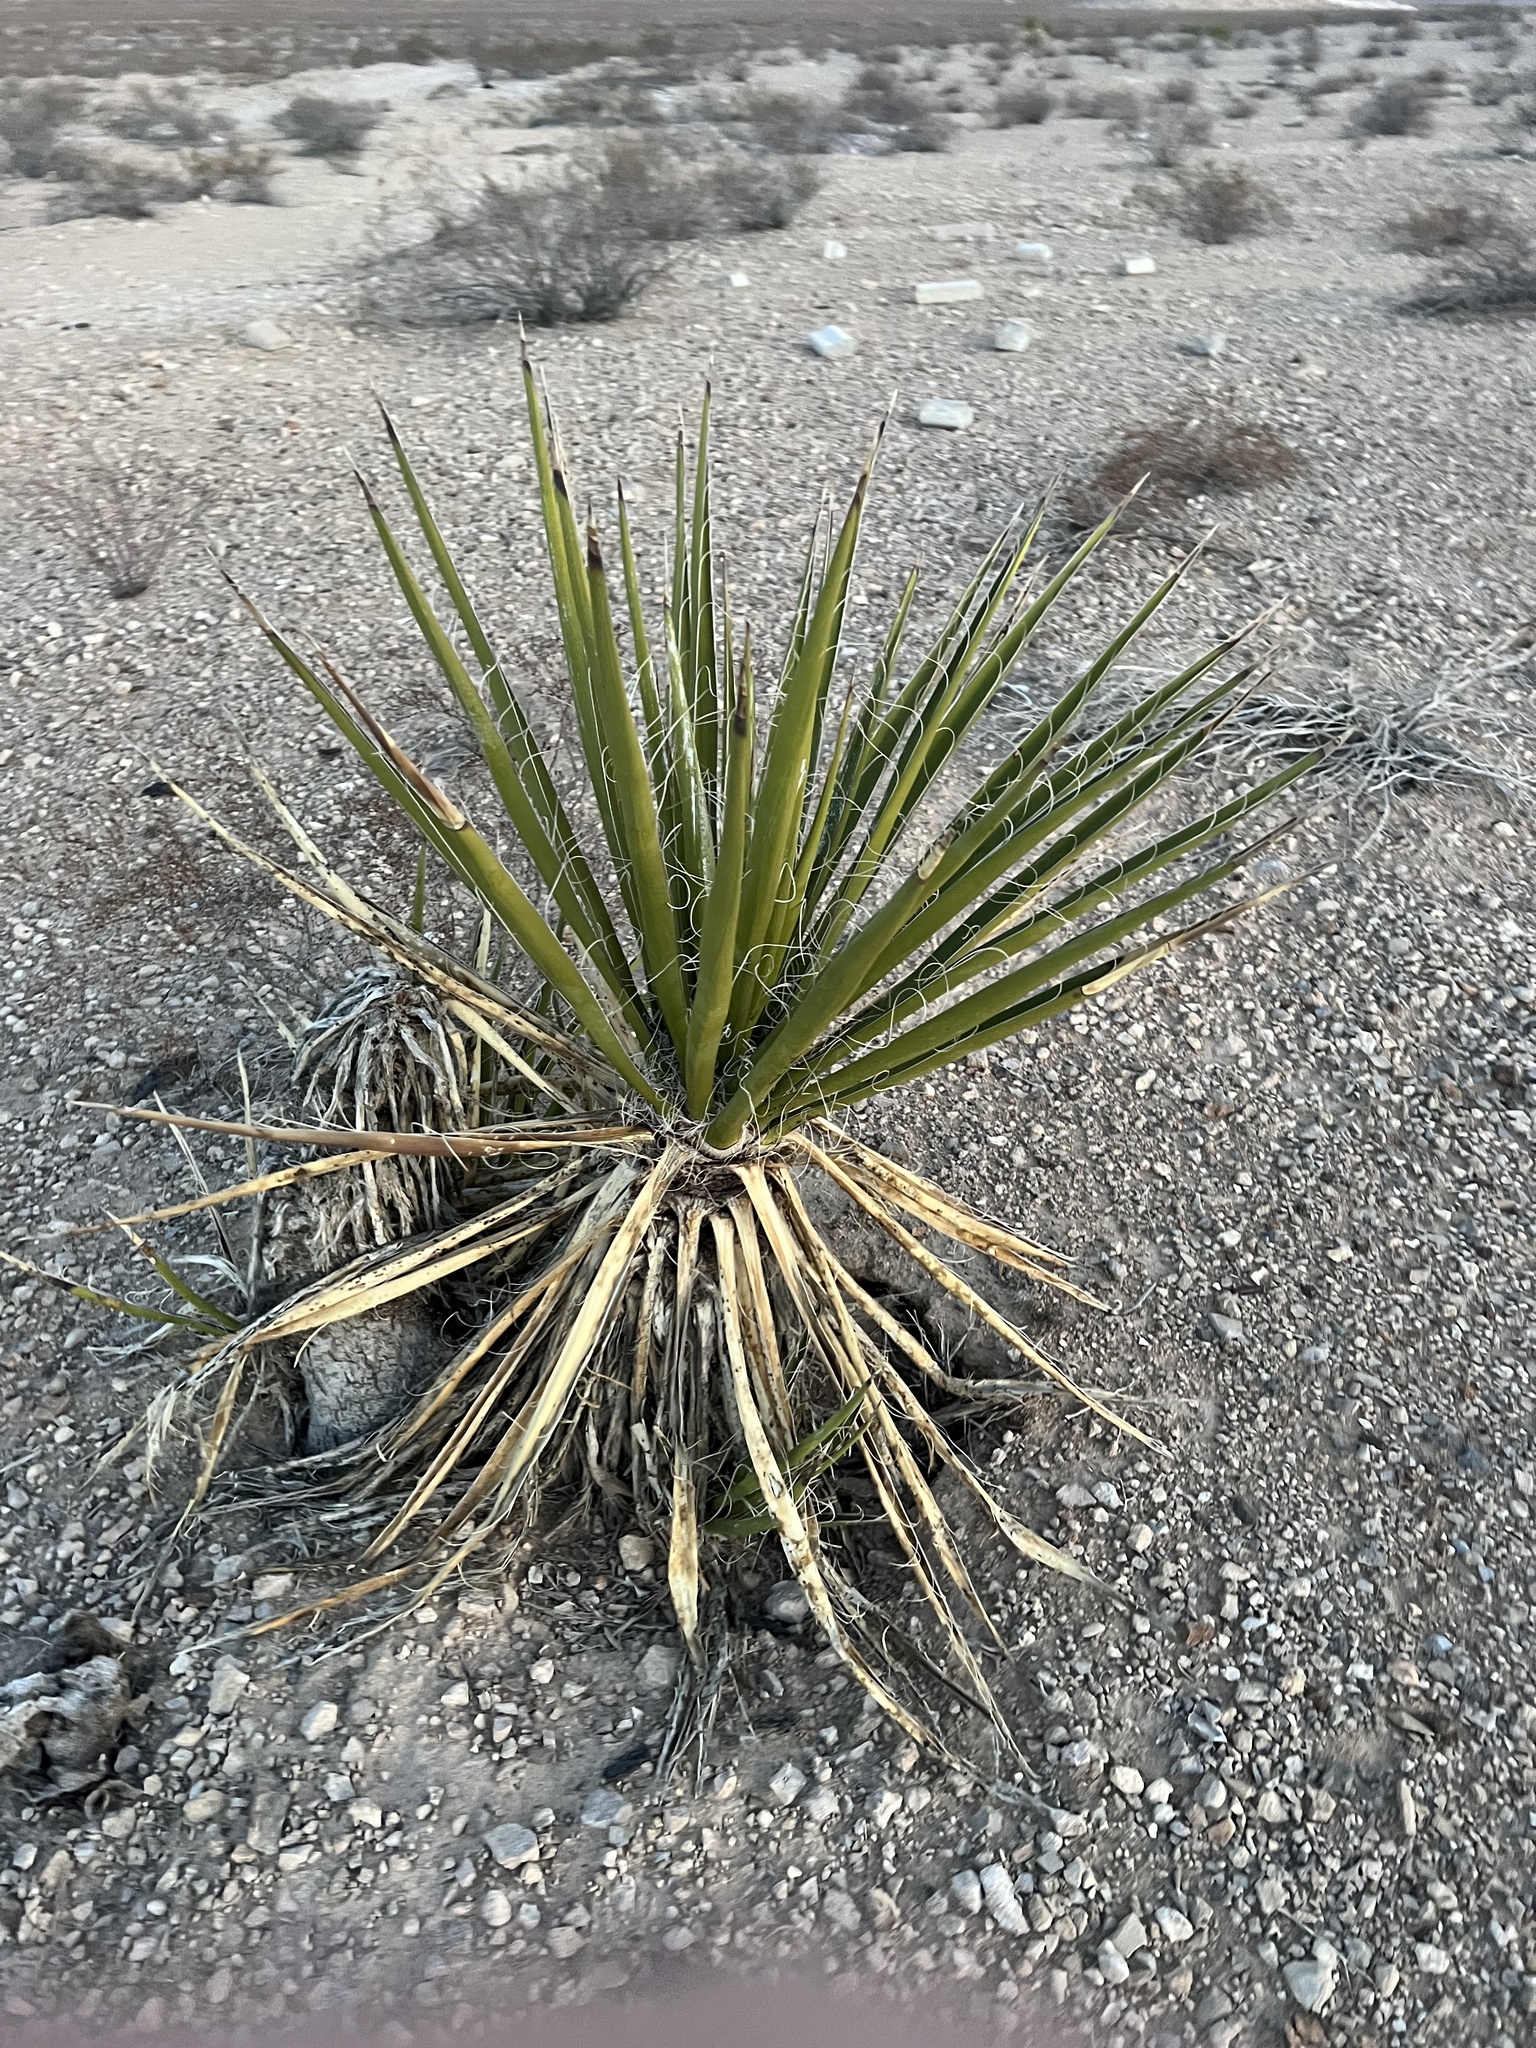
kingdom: Plantae
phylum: Tracheophyta
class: Liliopsida
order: Asparagales
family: Asparagaceae
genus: Yucca
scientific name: Yucca schidigera
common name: Mojave yucca
